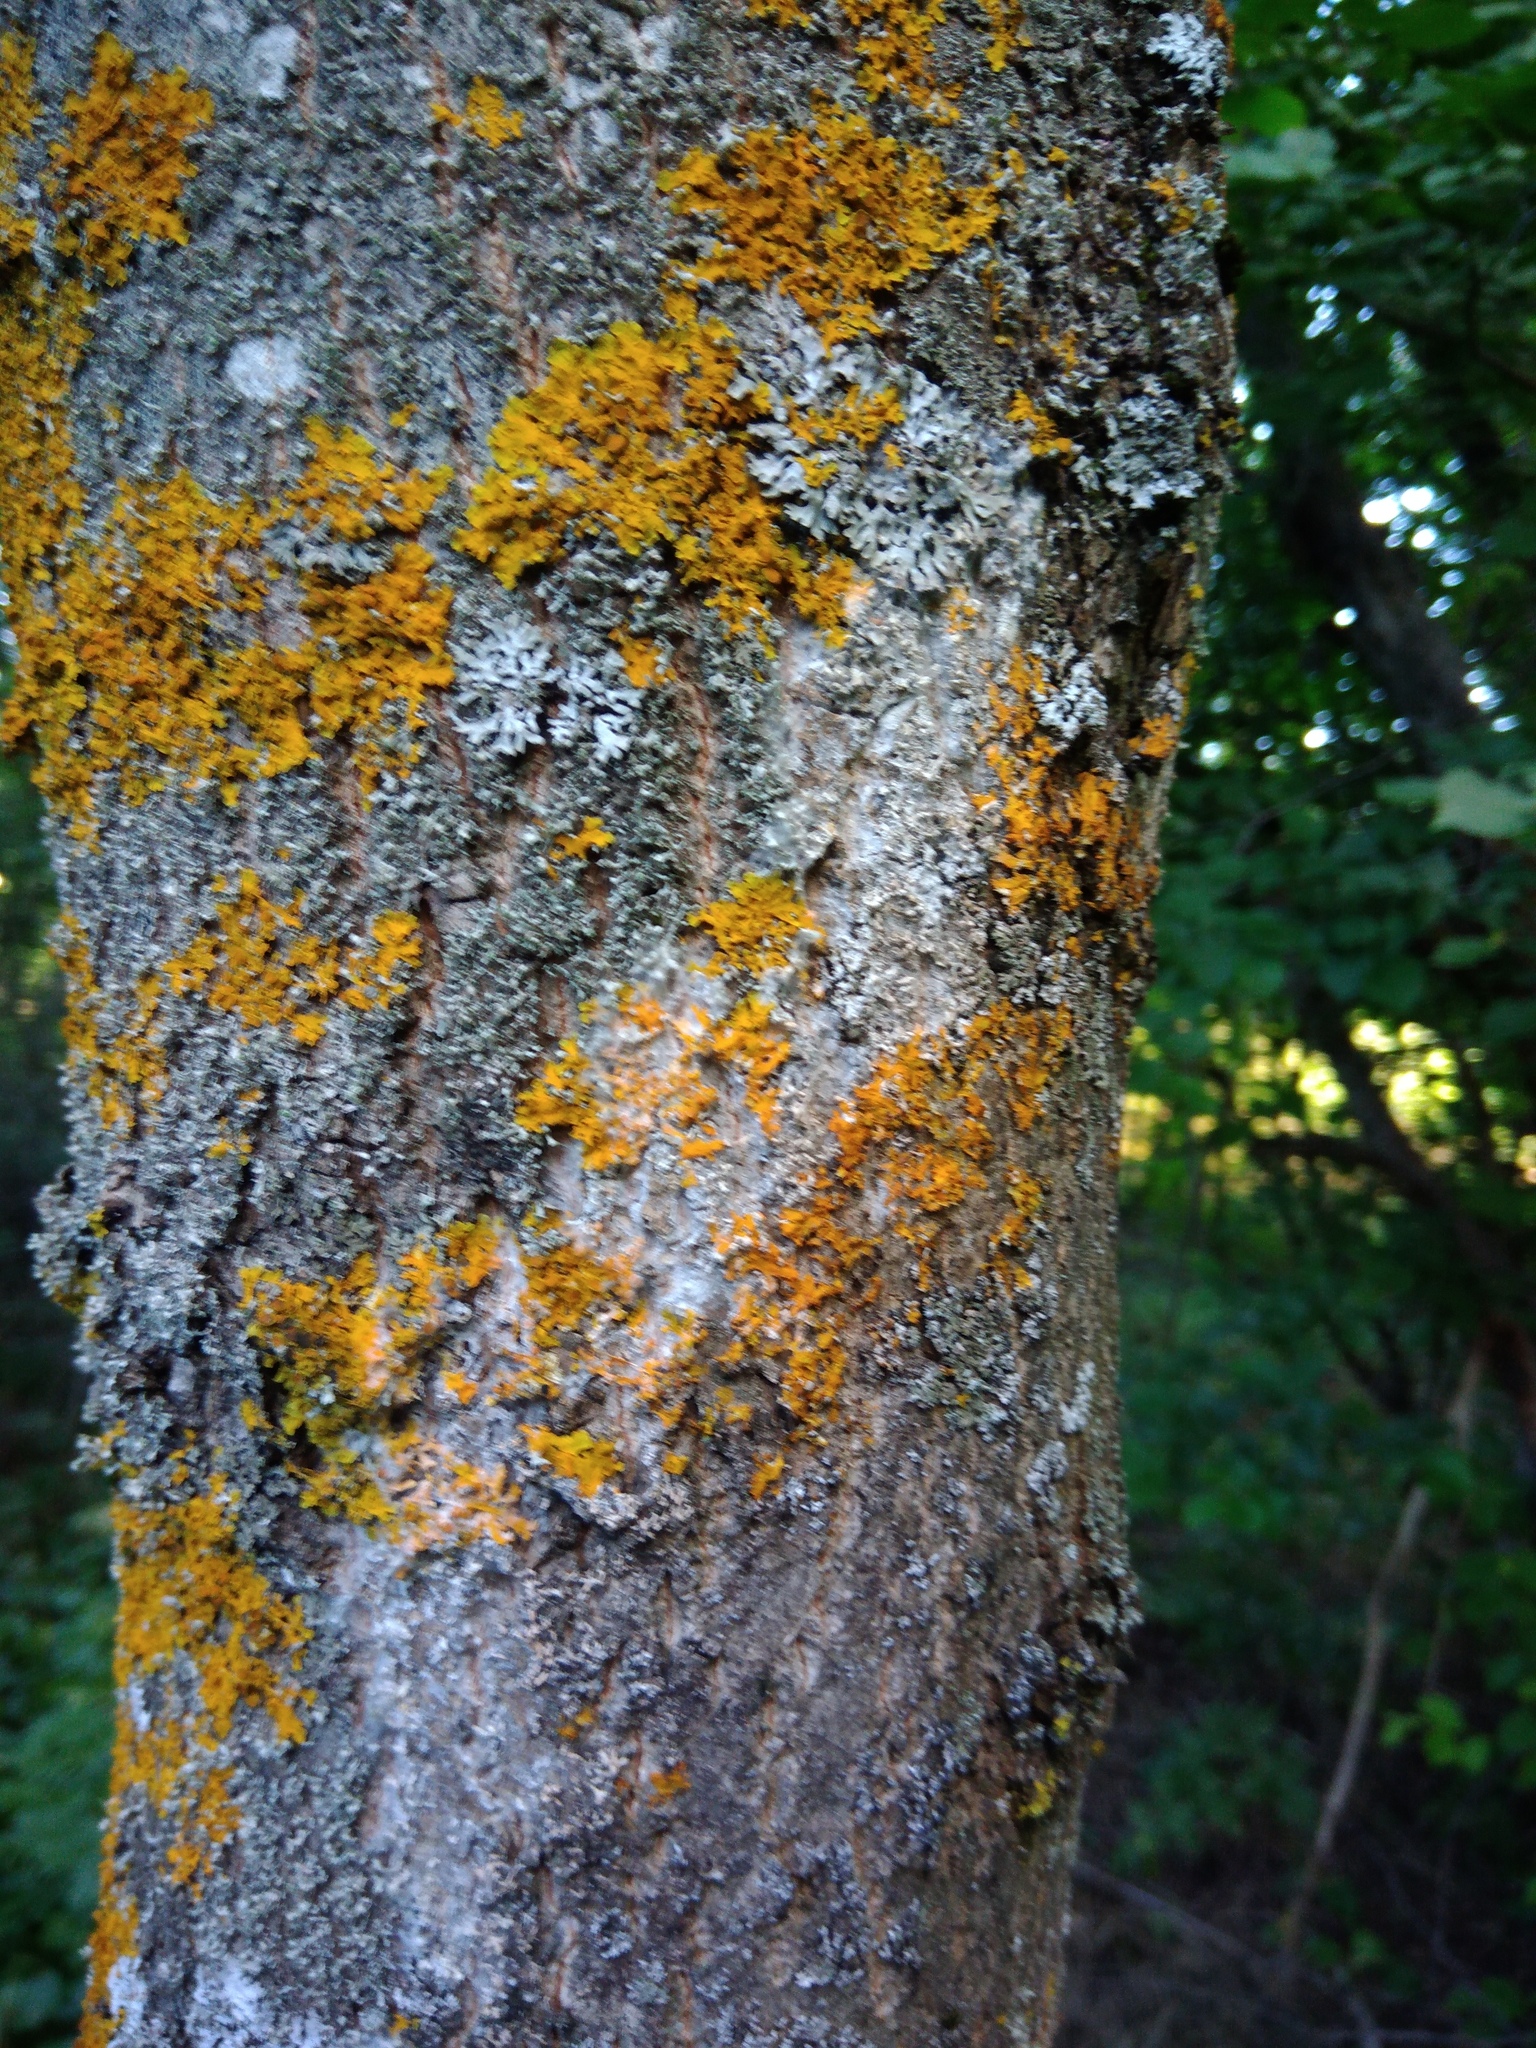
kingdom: Fungi
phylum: Basidiomycota
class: Agaricomycetes
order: Atheliales
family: Atheliaceae
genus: Athelia
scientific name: Athelia arachnoidea
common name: Candelabra duster
